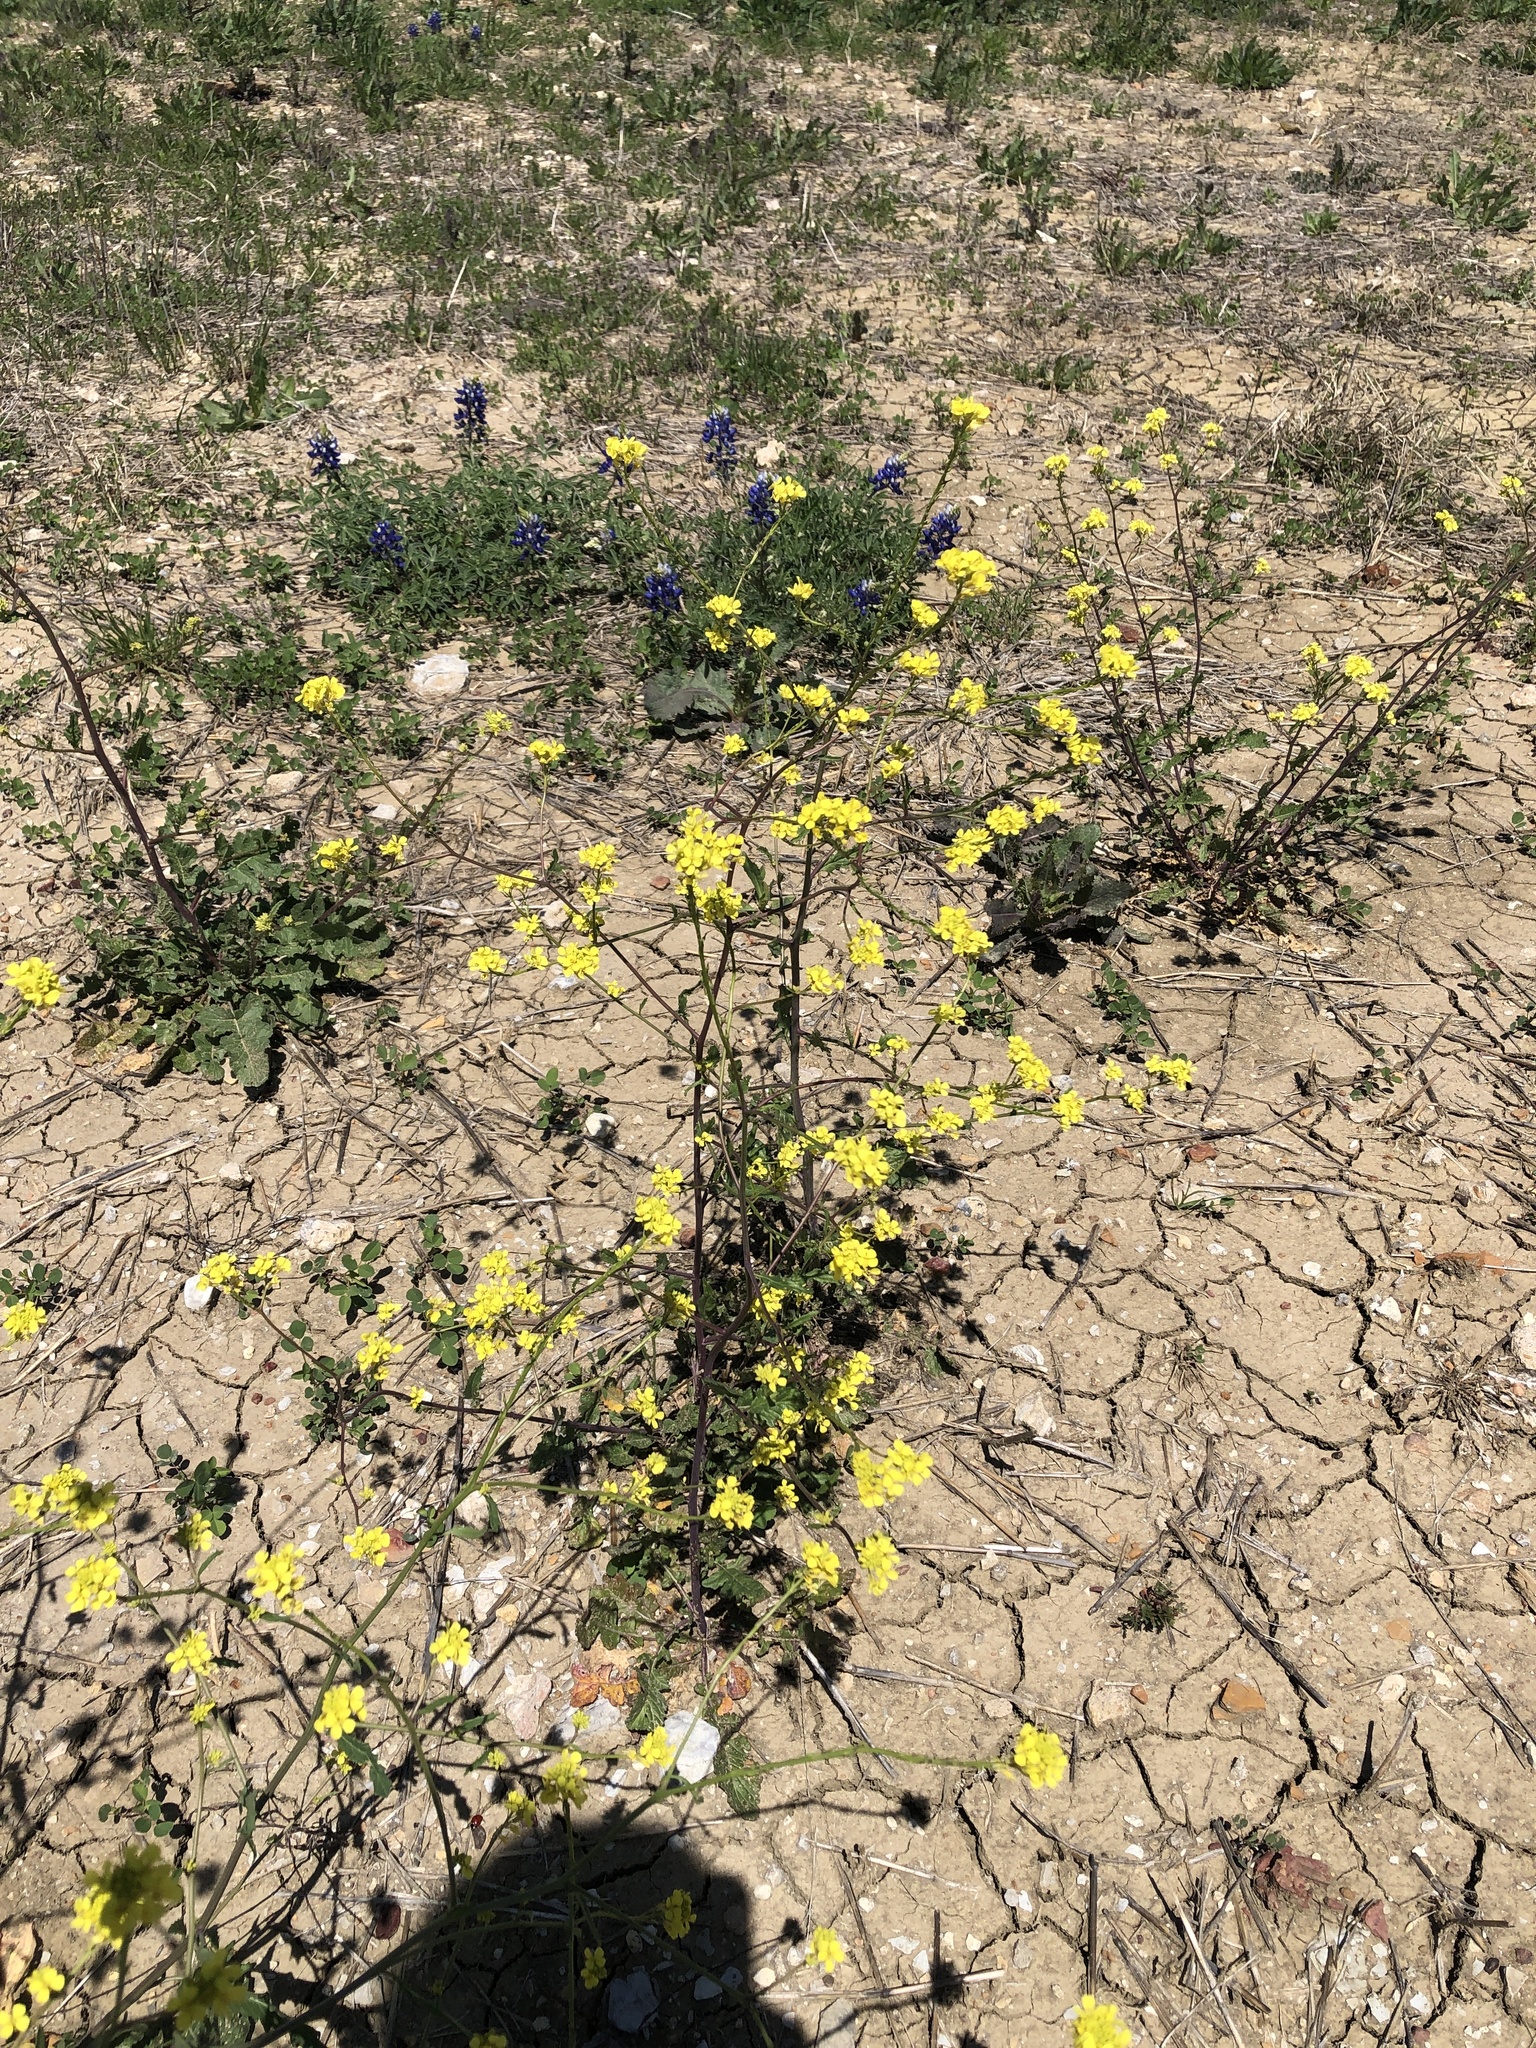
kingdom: Plantae
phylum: Tracheophyta
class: Magnoliopsida
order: Brassicales
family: Brassicaceae
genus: Rapistrum
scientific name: Rapistrum rugosum
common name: Annual bastardcabbage
